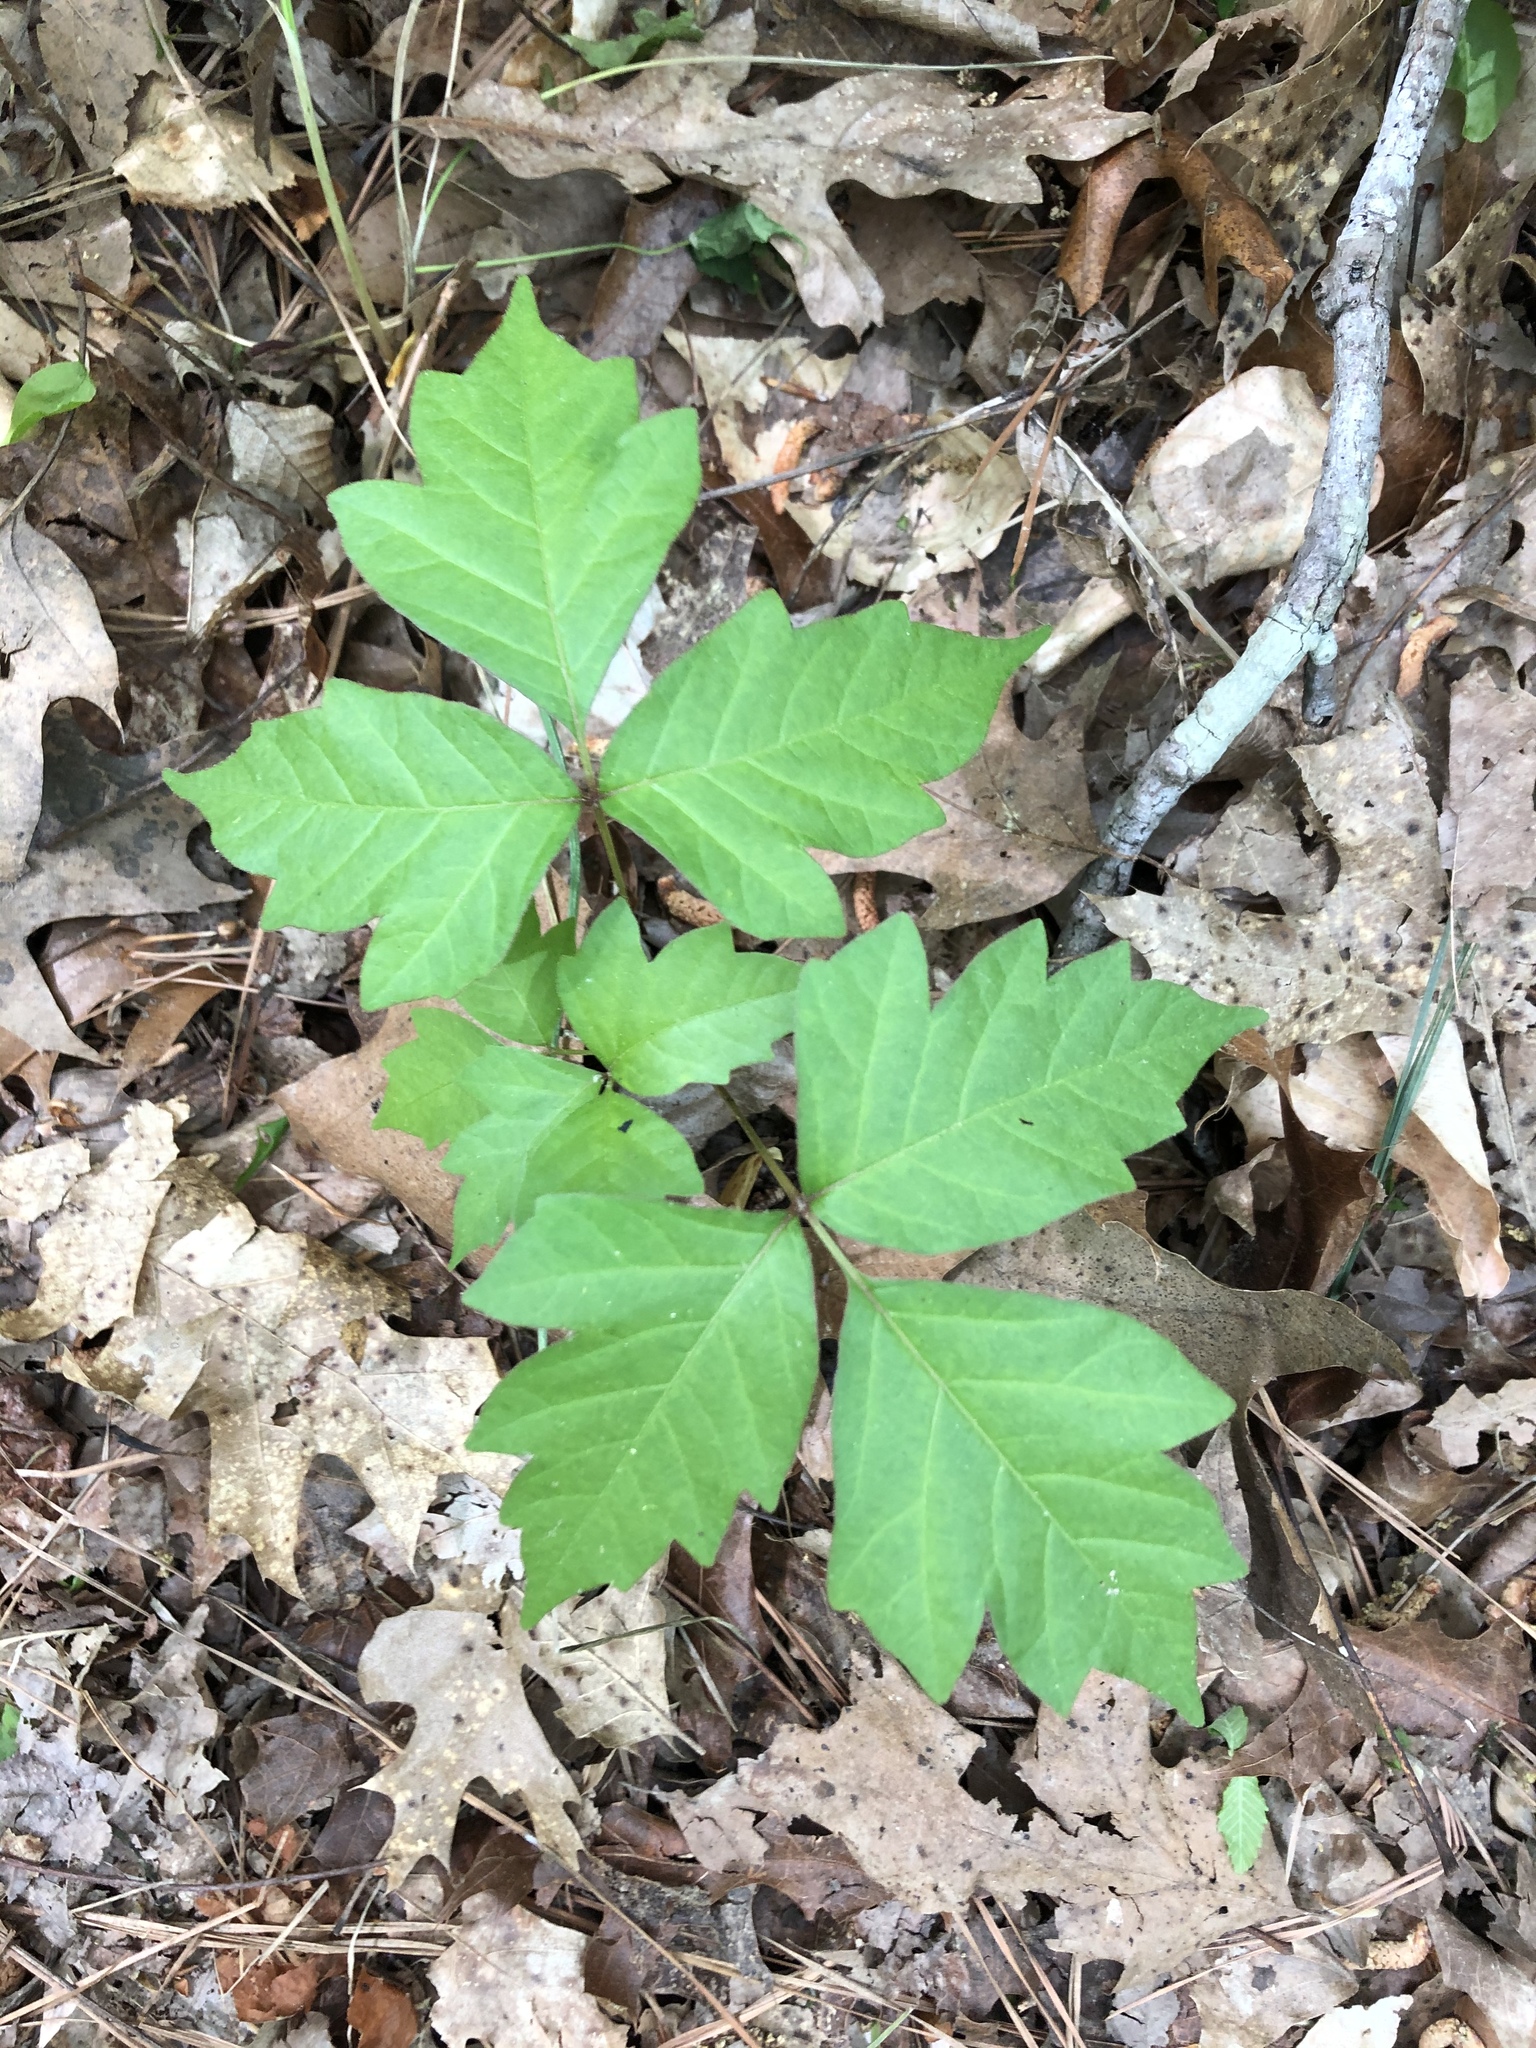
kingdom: Plantae
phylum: Tracheophyta
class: Magnoliopsida
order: Sapindales
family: Anacardiaceae
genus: Toxicodendron
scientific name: Toxicodendron radicans
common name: Poison ivy
